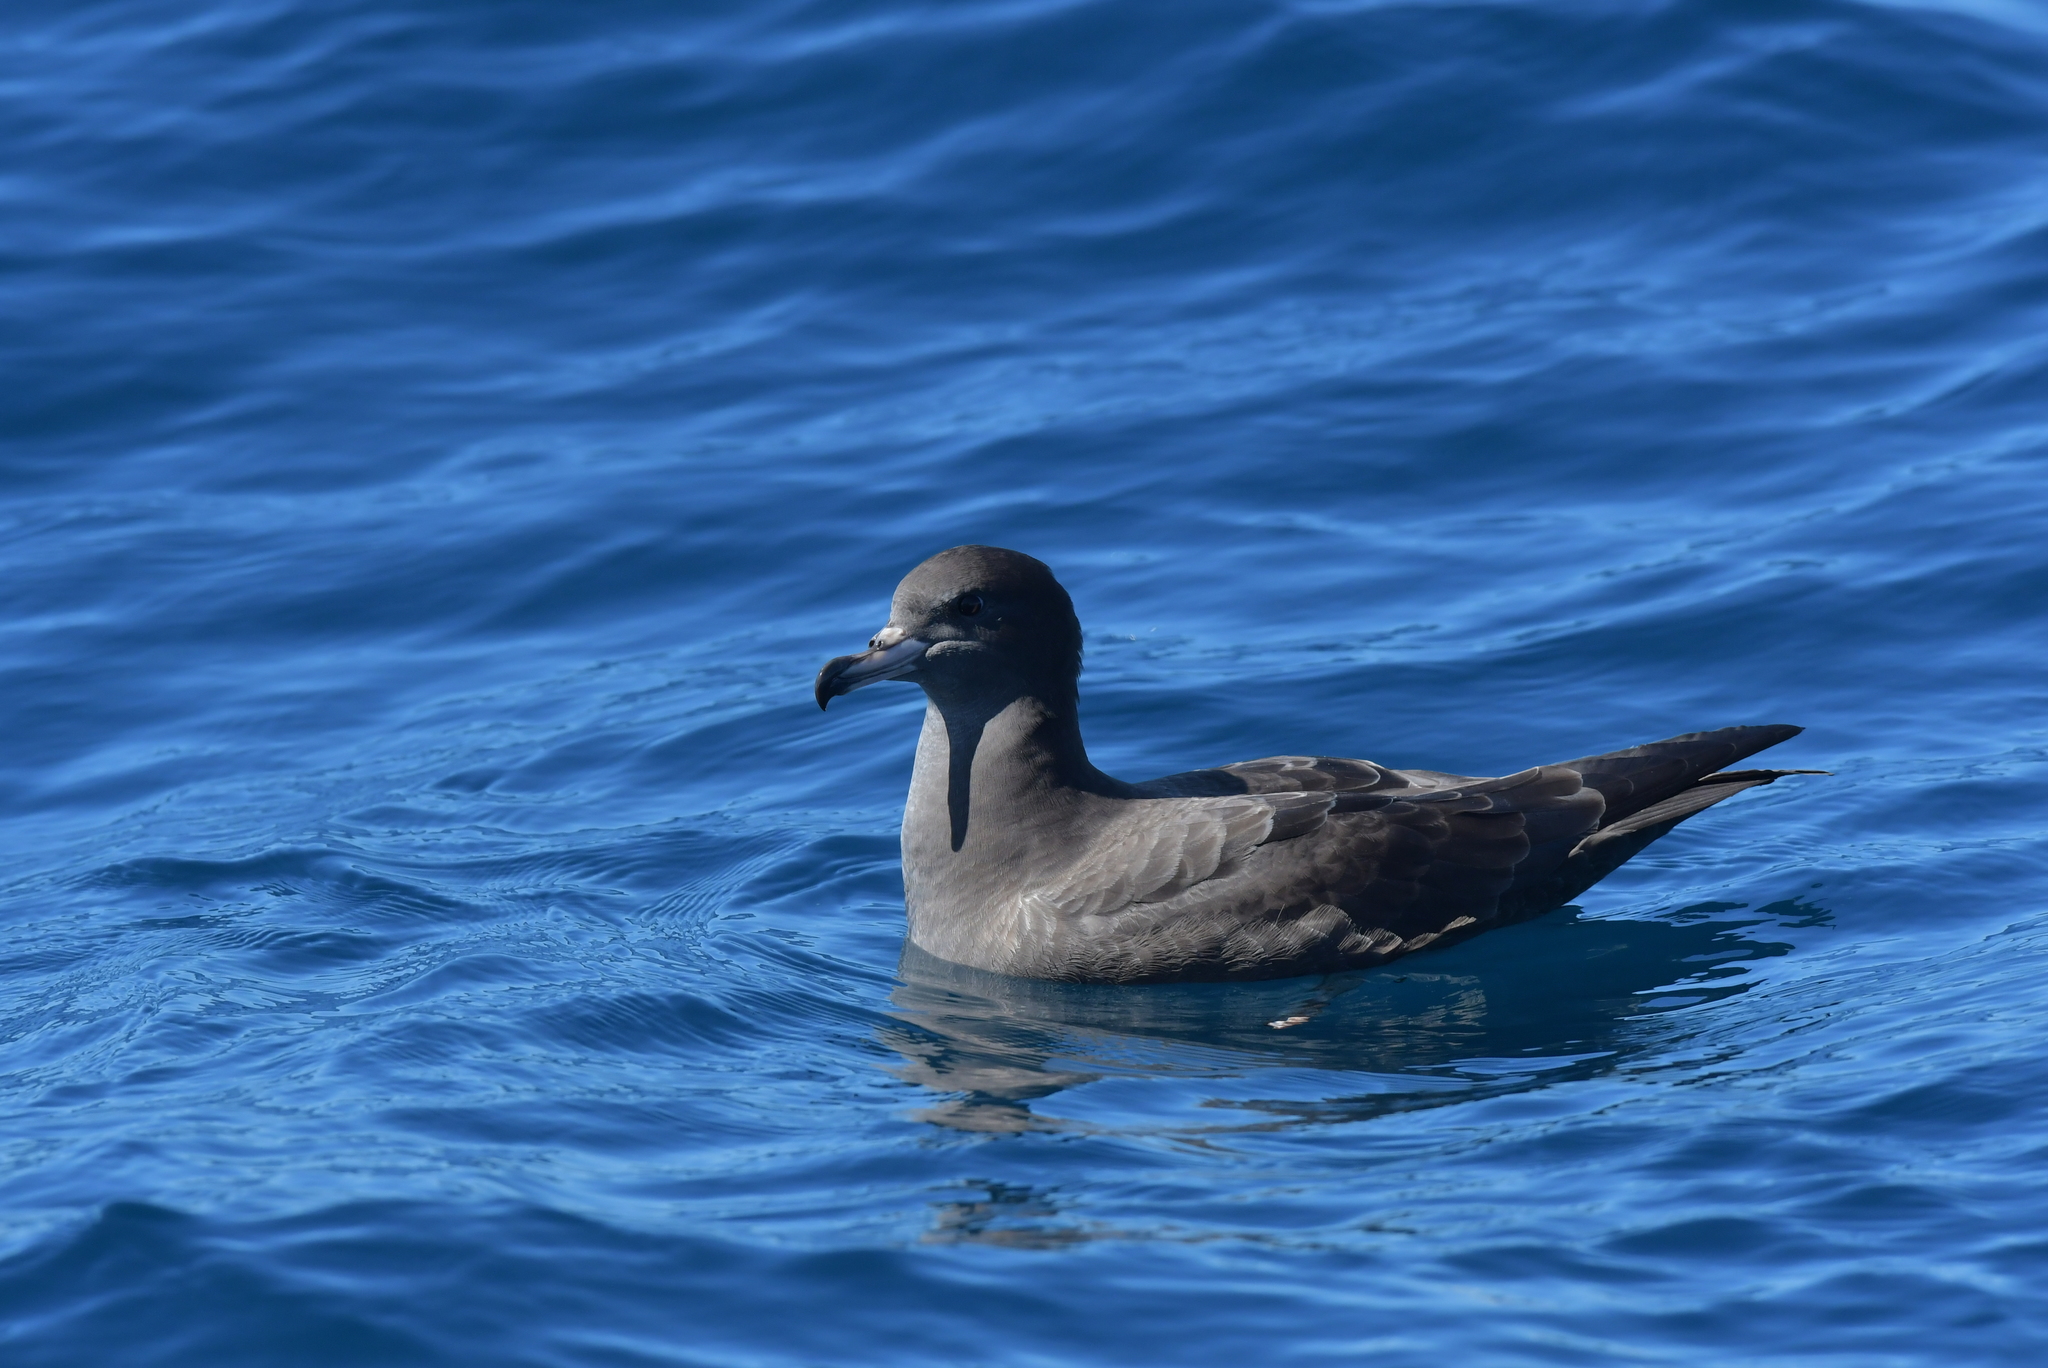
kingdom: Animalia
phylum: Chordata
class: Aves
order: Procellariiformes
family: Procellariidae
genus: Puffinus
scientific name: Puffinus carneipes
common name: Flesh-footed shearwater
